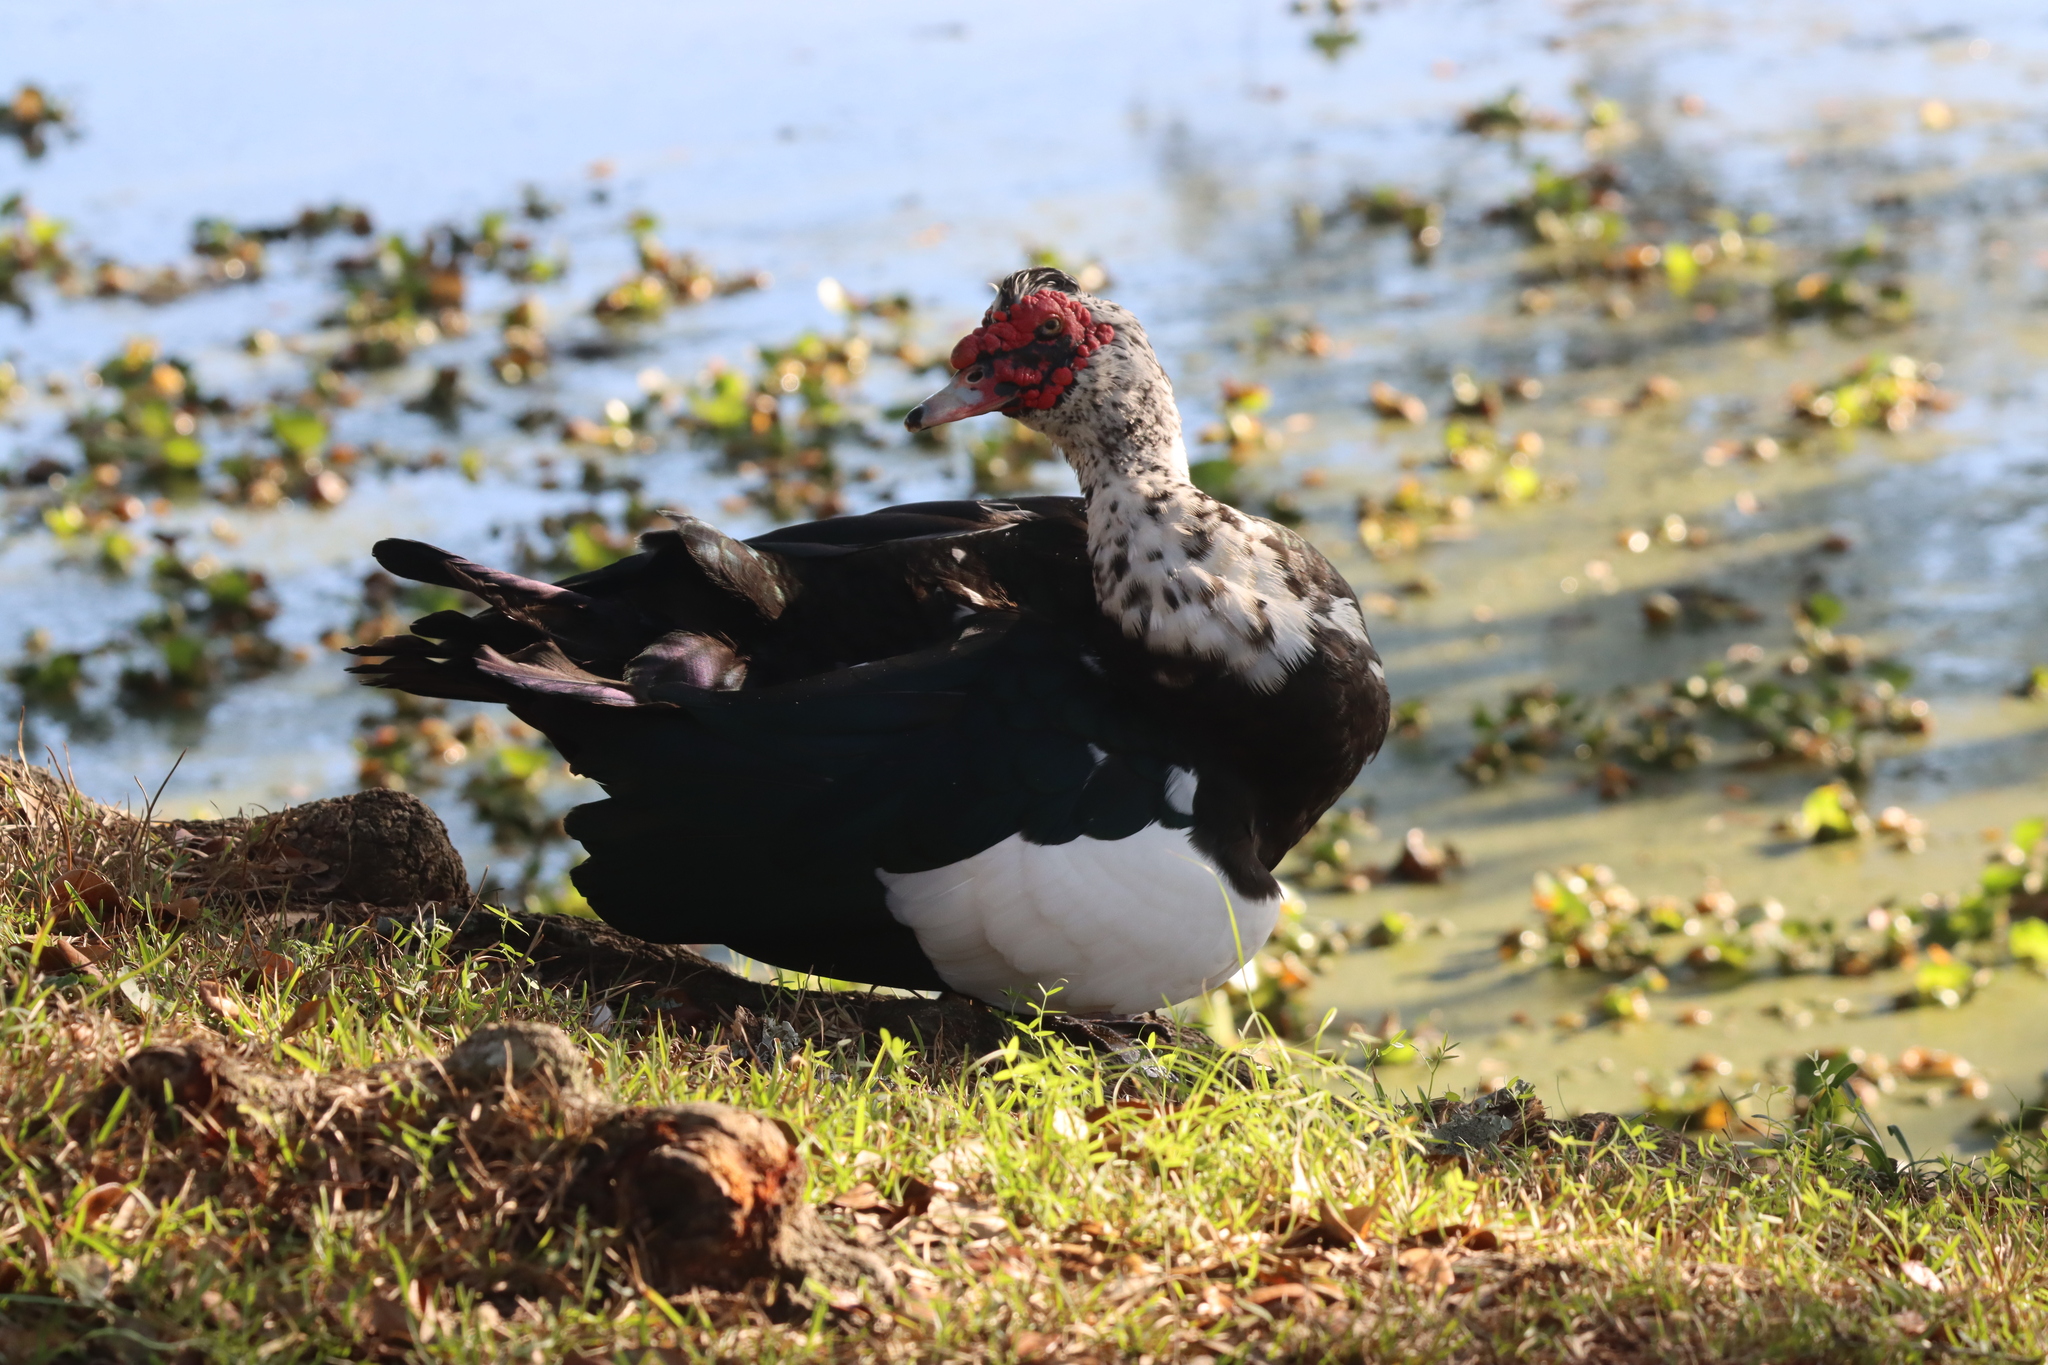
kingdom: Animalia
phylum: Chordata
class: Aves
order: Anseriformes
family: Anatidae
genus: Cairina
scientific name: Cairina moschata
